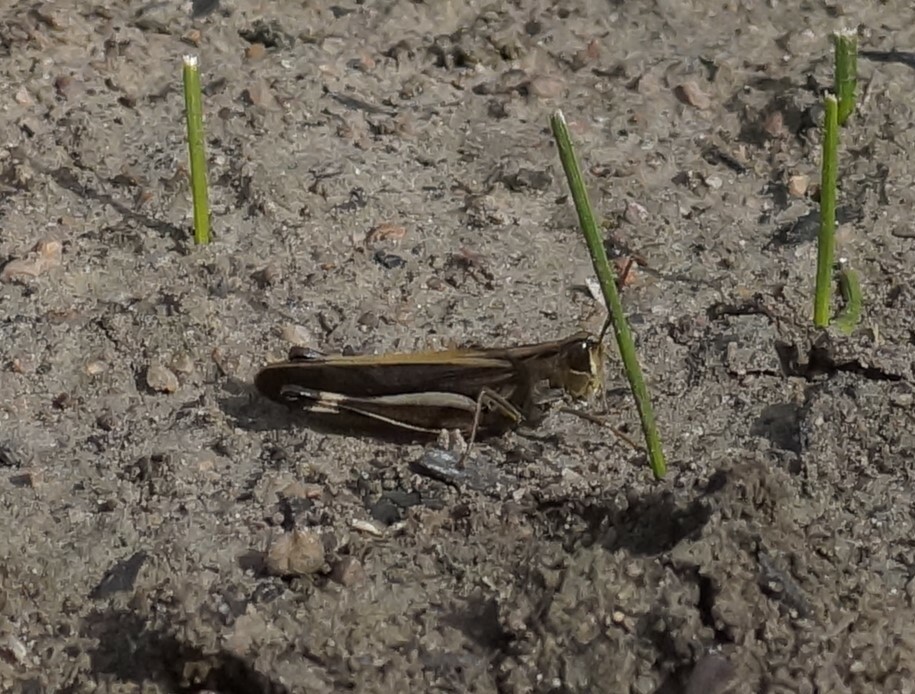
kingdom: Animalia
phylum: Arthropoda
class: Insecta
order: Orthoptera
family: Acrididae
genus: Caledia
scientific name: Caledia captiva
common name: Caledia
